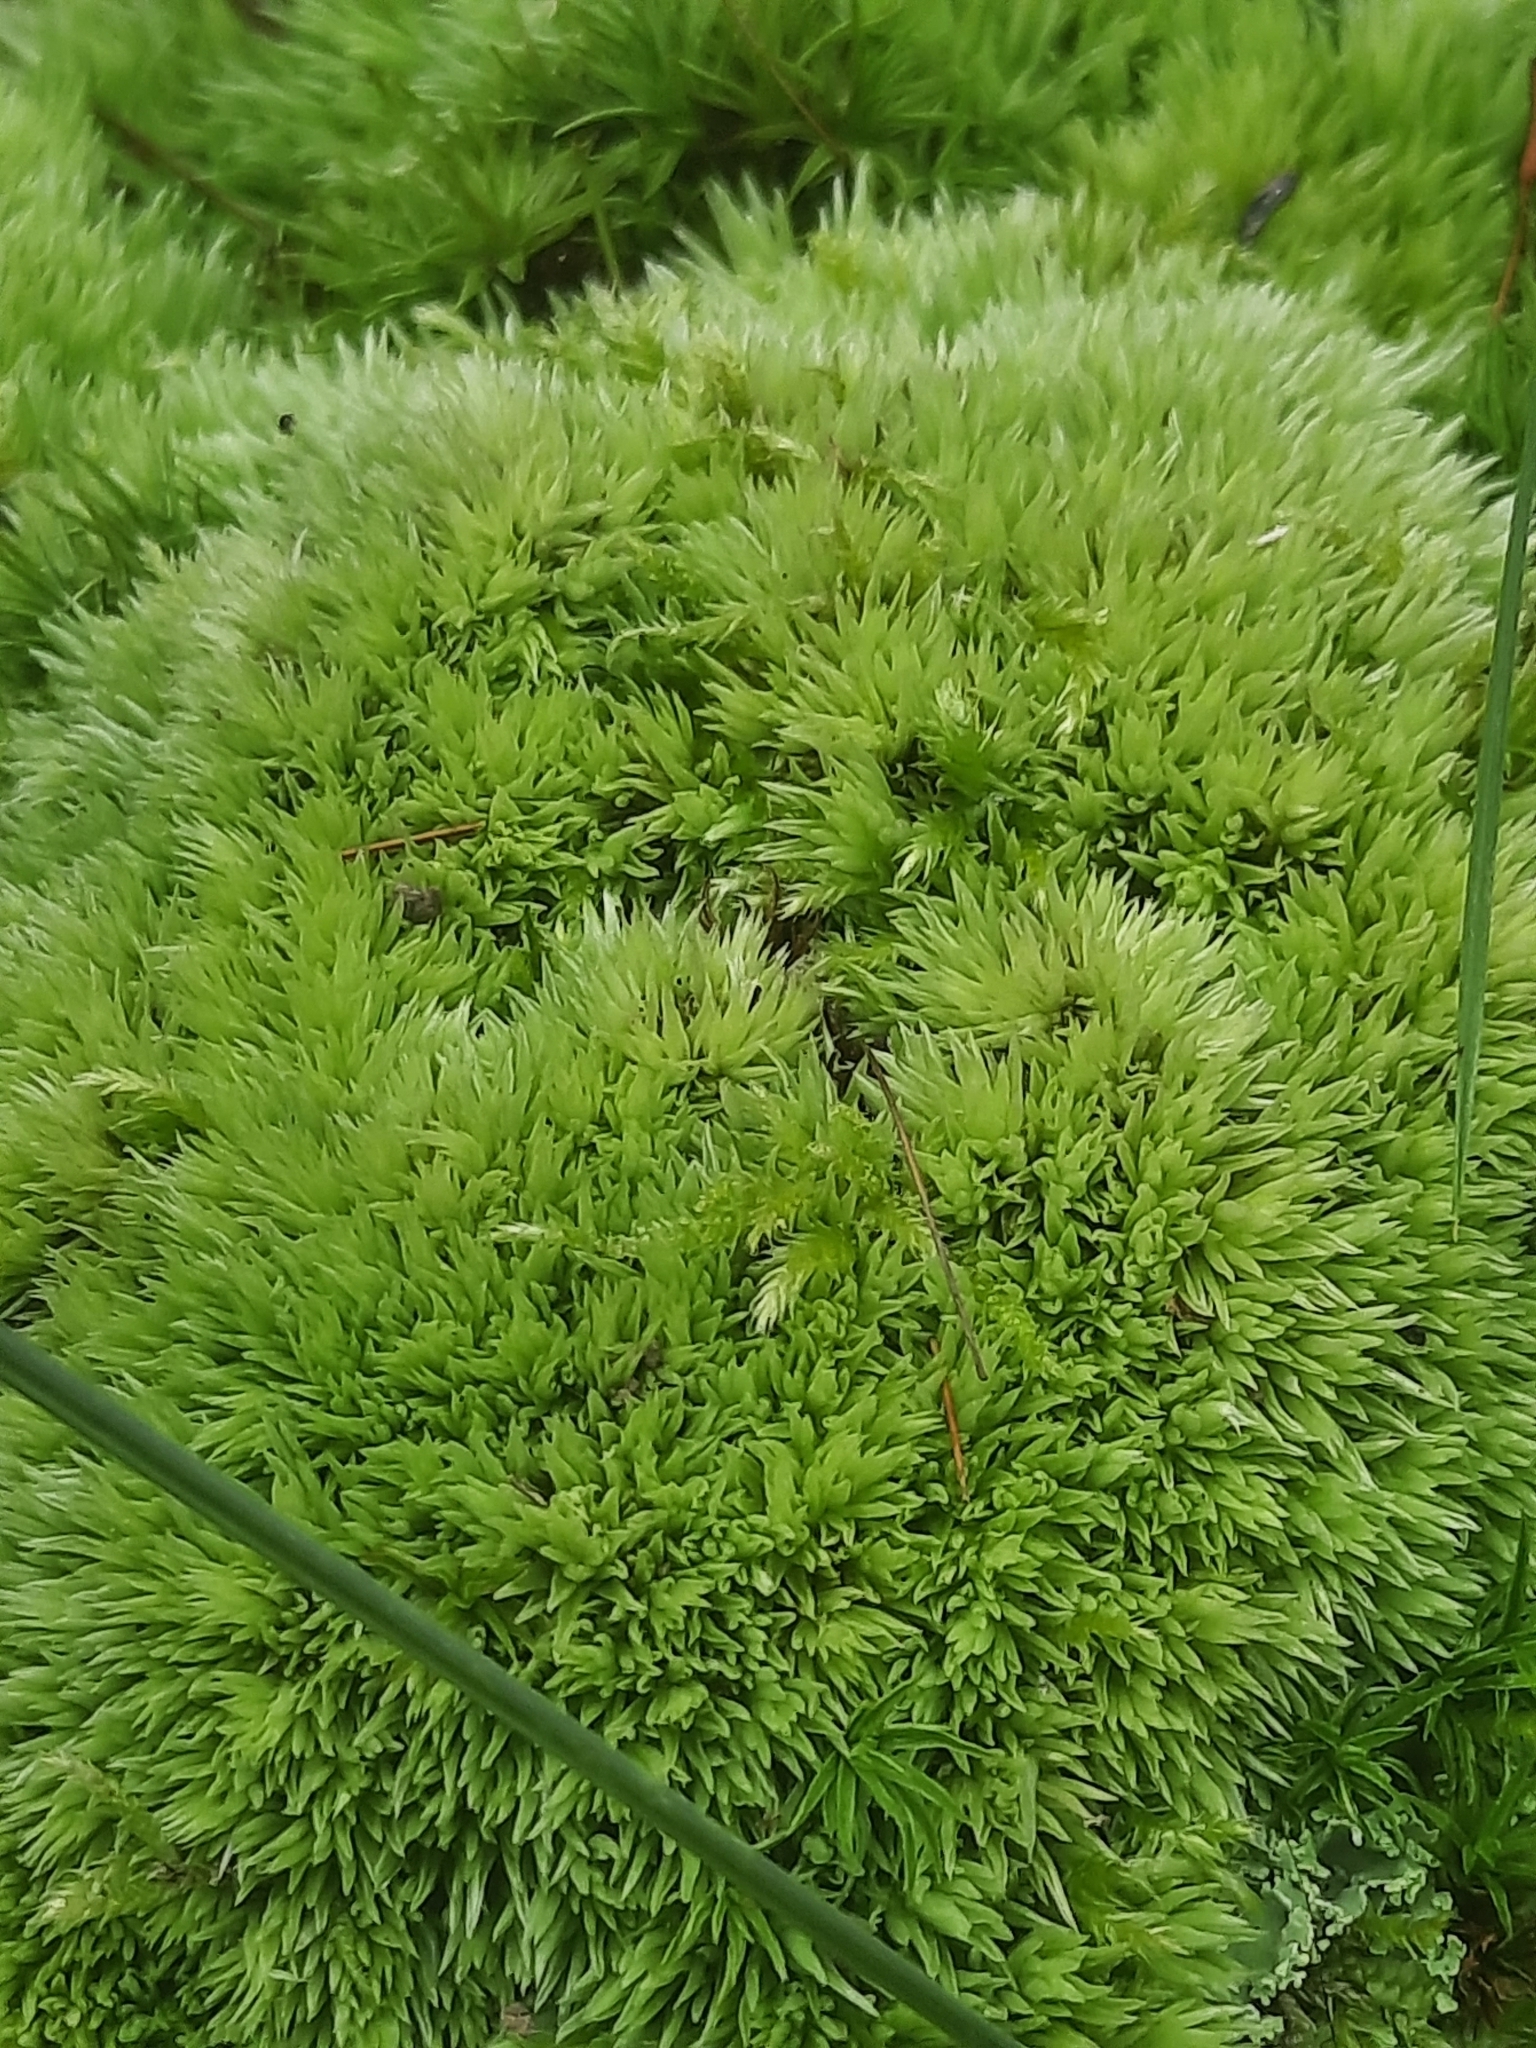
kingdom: Plantae
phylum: Bryophyta
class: Bryopsida
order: Dicranales
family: Leucobryaceae
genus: Leucobryum
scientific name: Leucobryum glaucum
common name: Large white-moss
